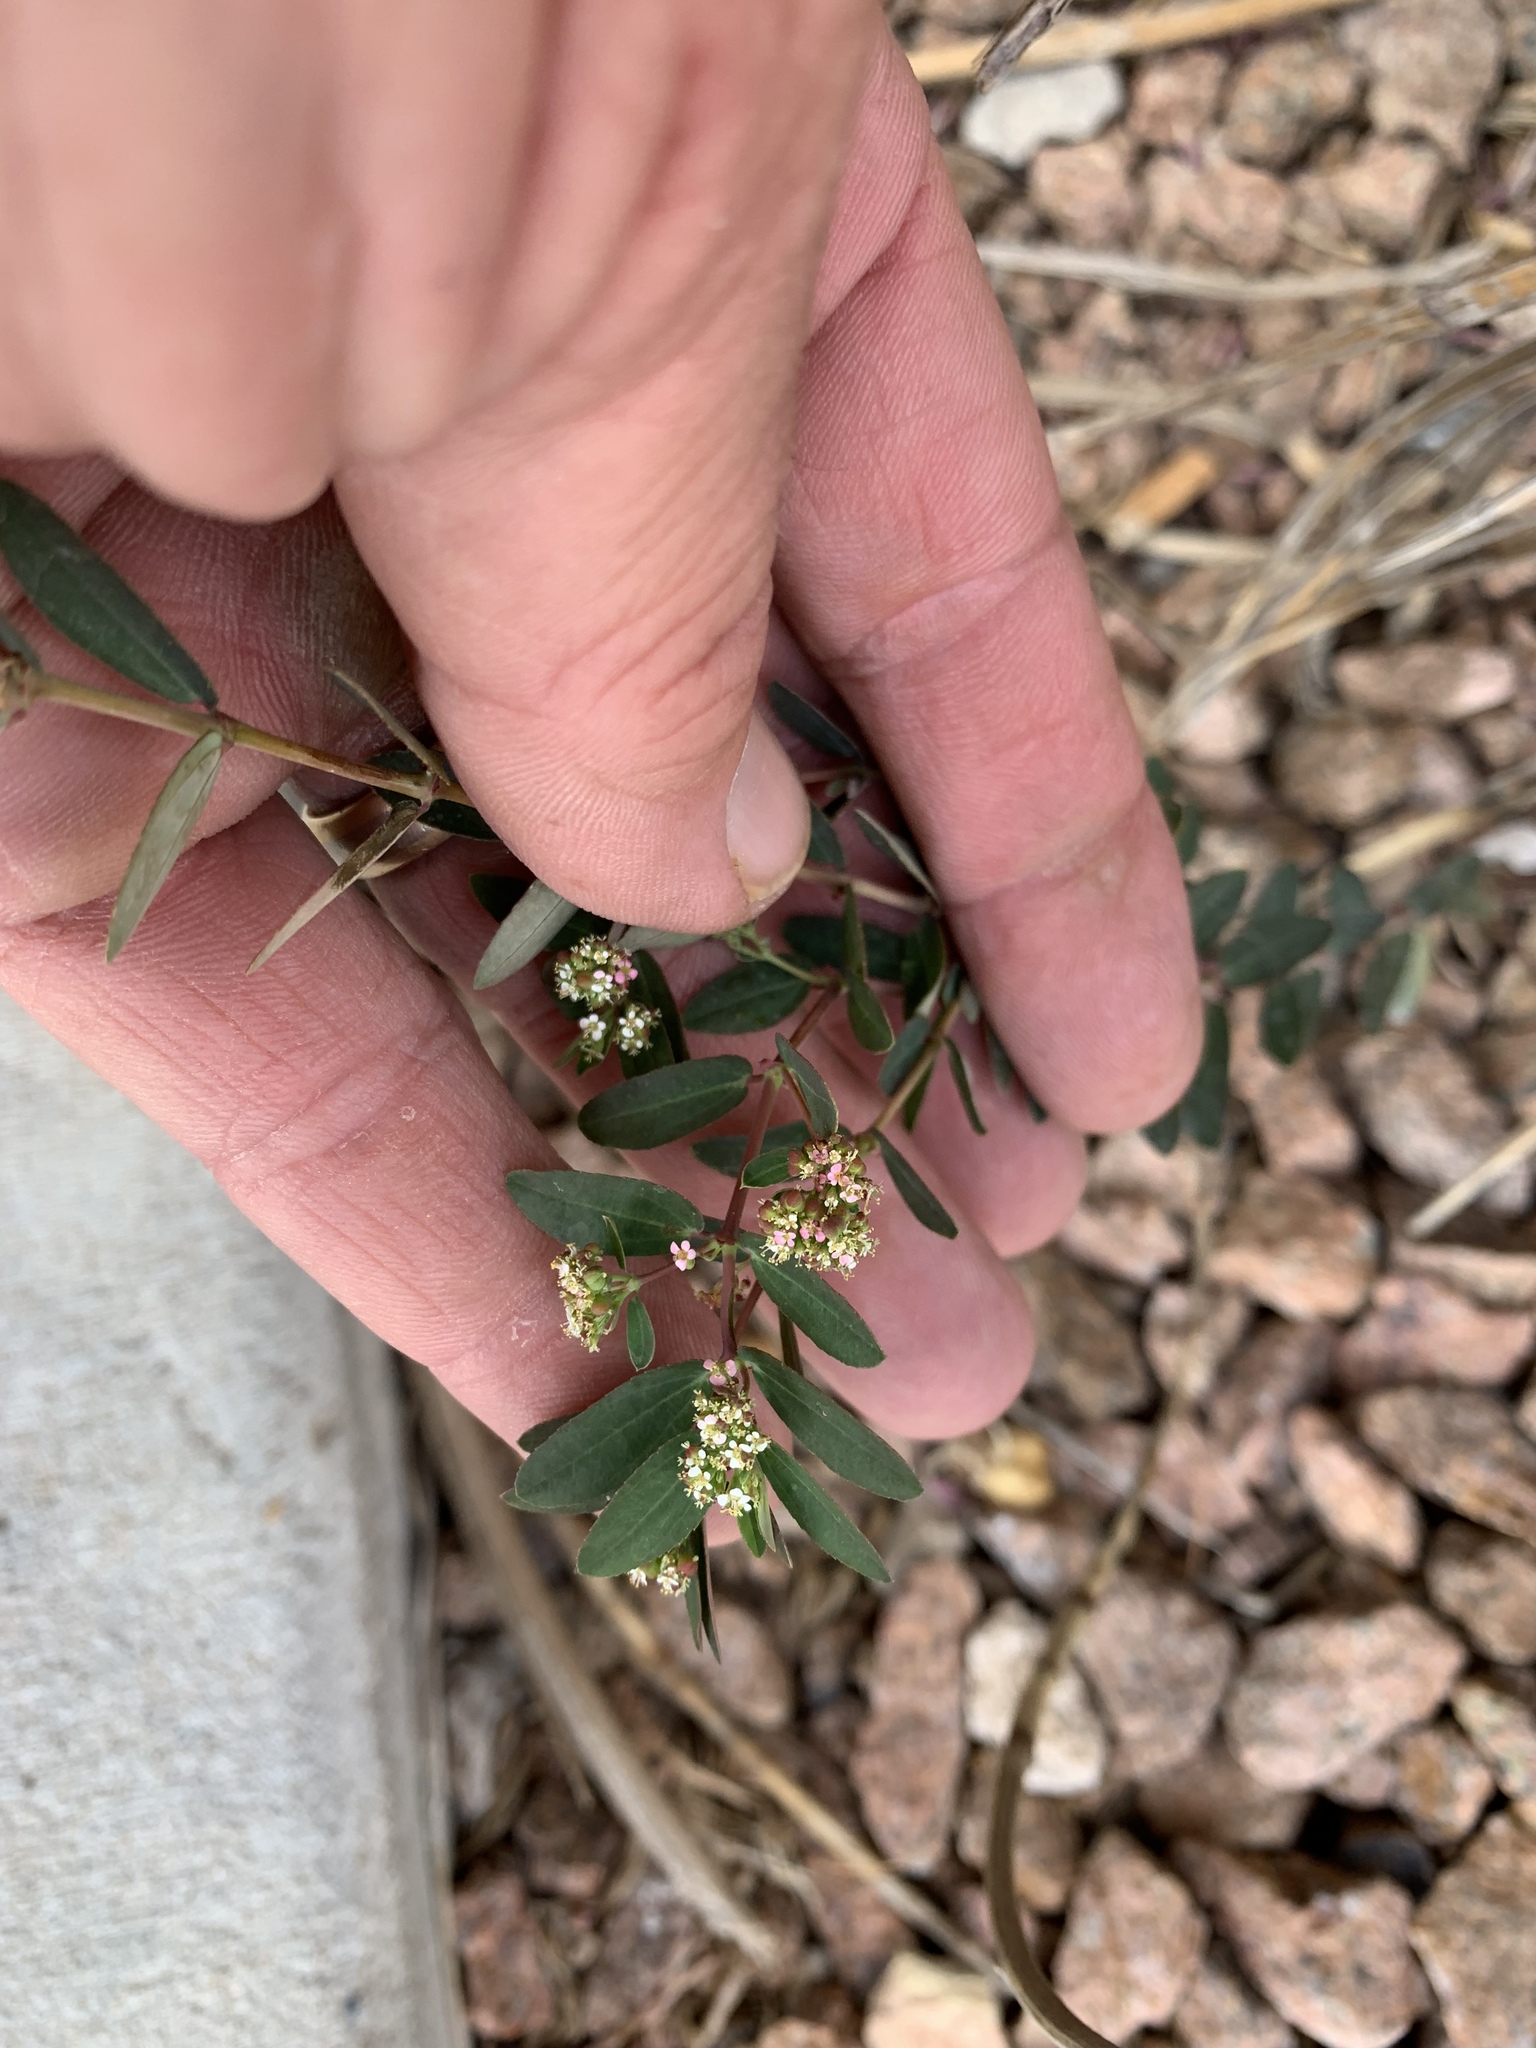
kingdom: Plantae
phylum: Tracheophyta
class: Magnoliopsida
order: Malpighiales
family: Euphorbiaceae
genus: Euphorbia
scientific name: Euphorbia hypericifolia
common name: Graceful sandmat
